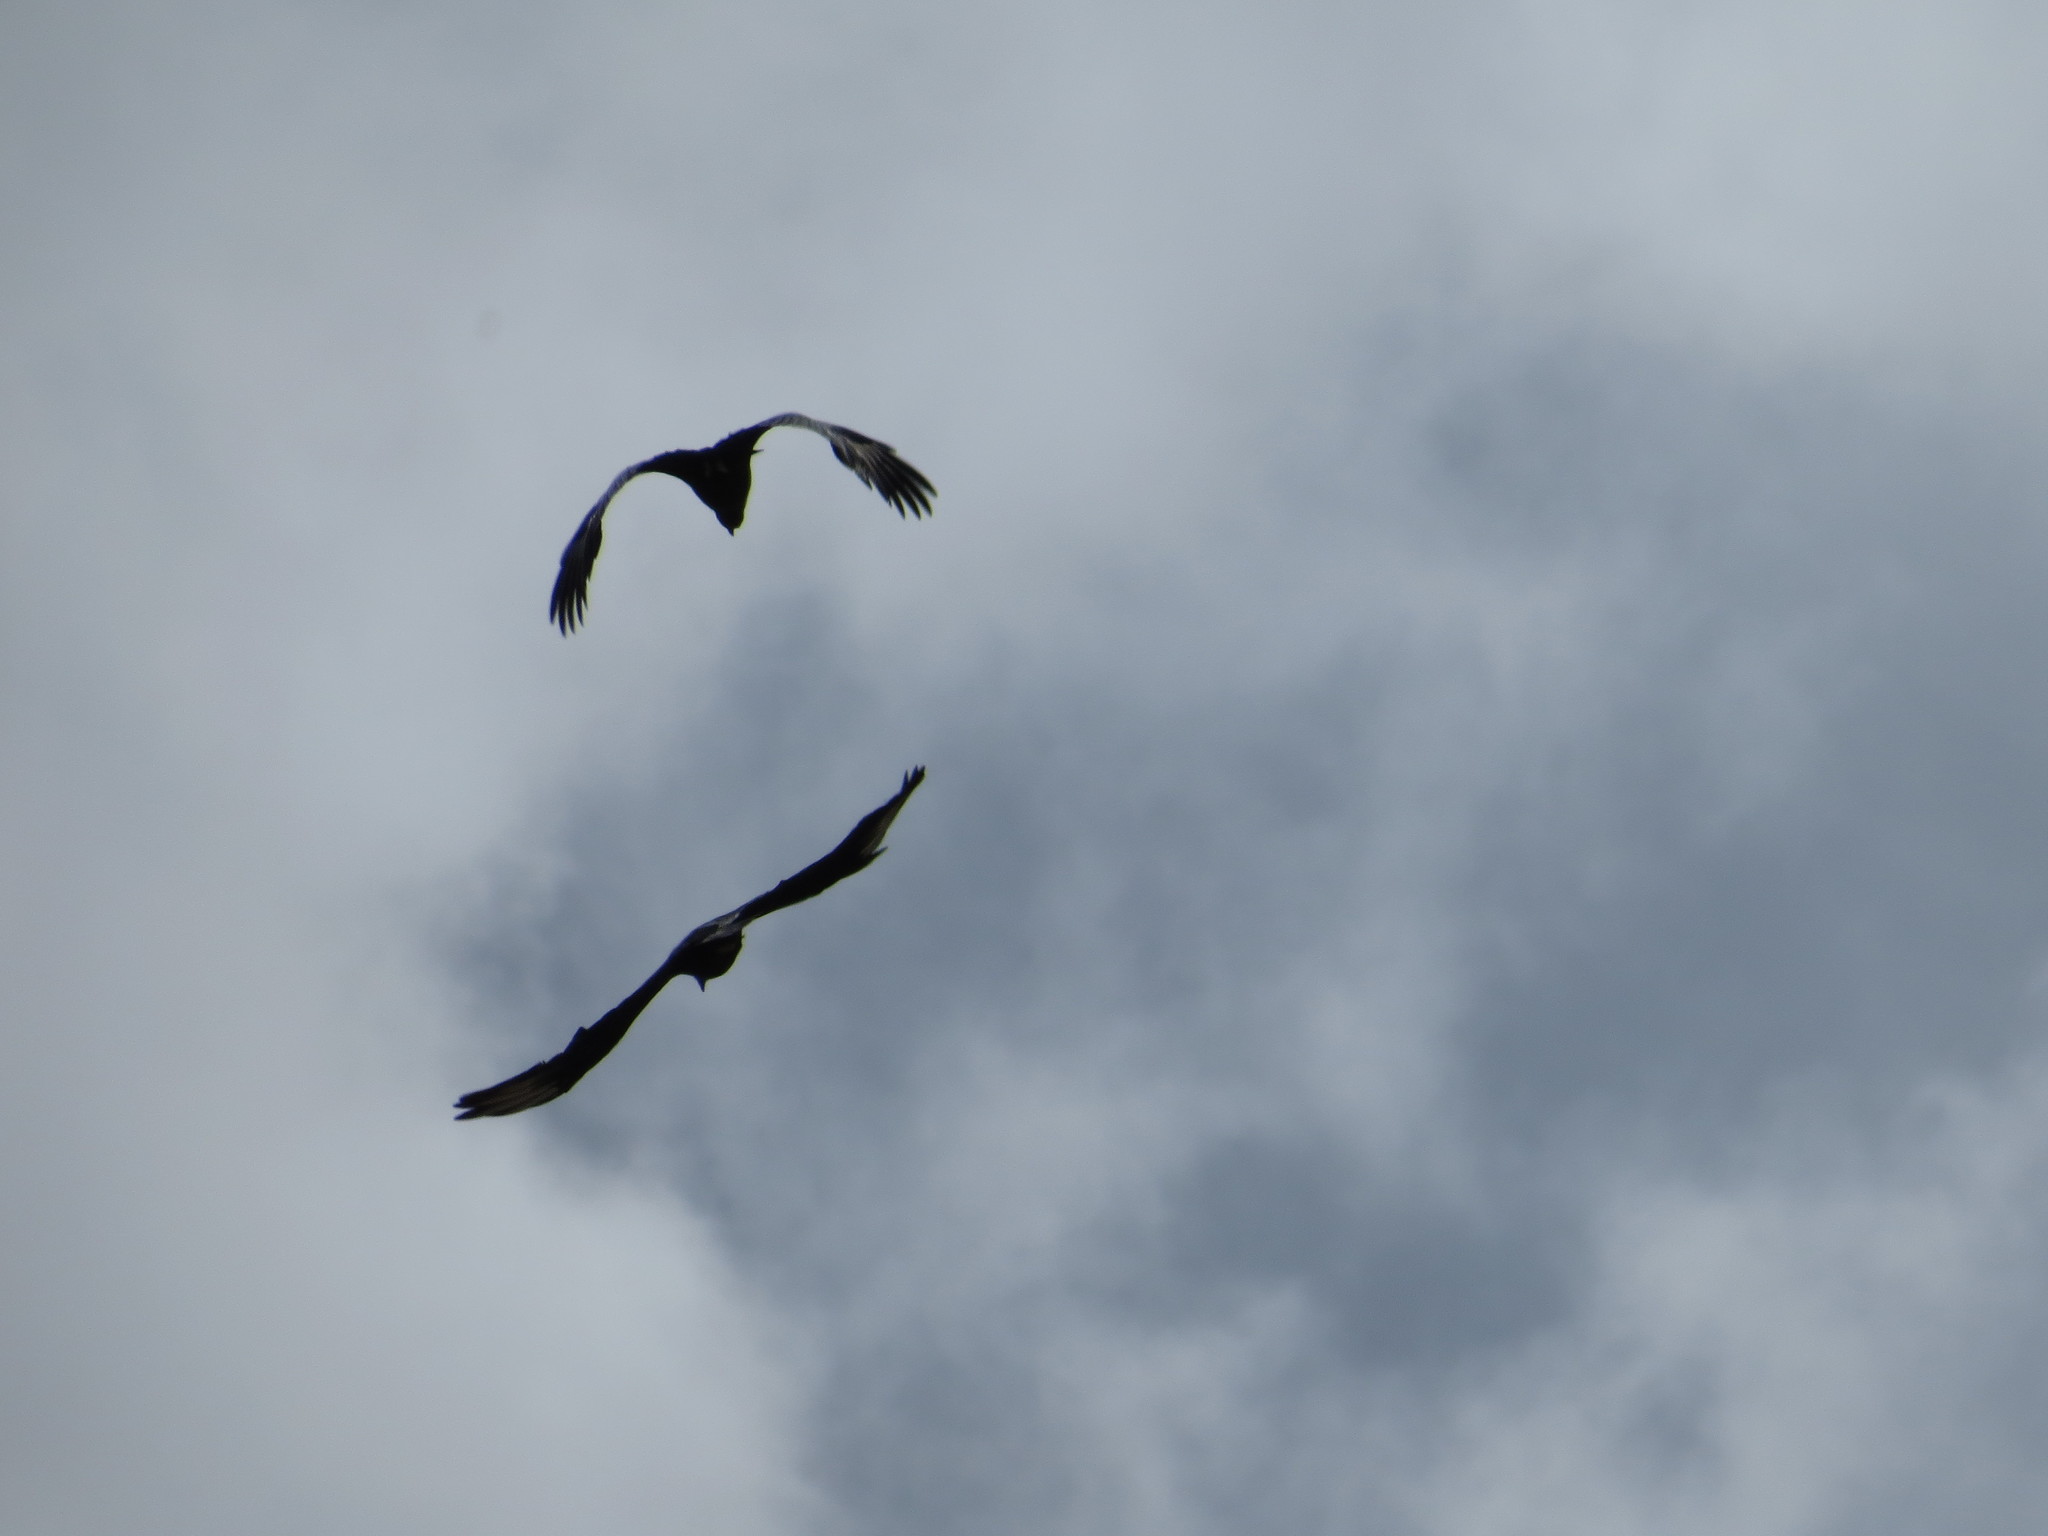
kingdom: Animalia
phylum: Chordata
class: Aves
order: Accipitriformes
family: Cathartidae
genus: Coragyps
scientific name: Coragyps atratus
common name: Black vulture
